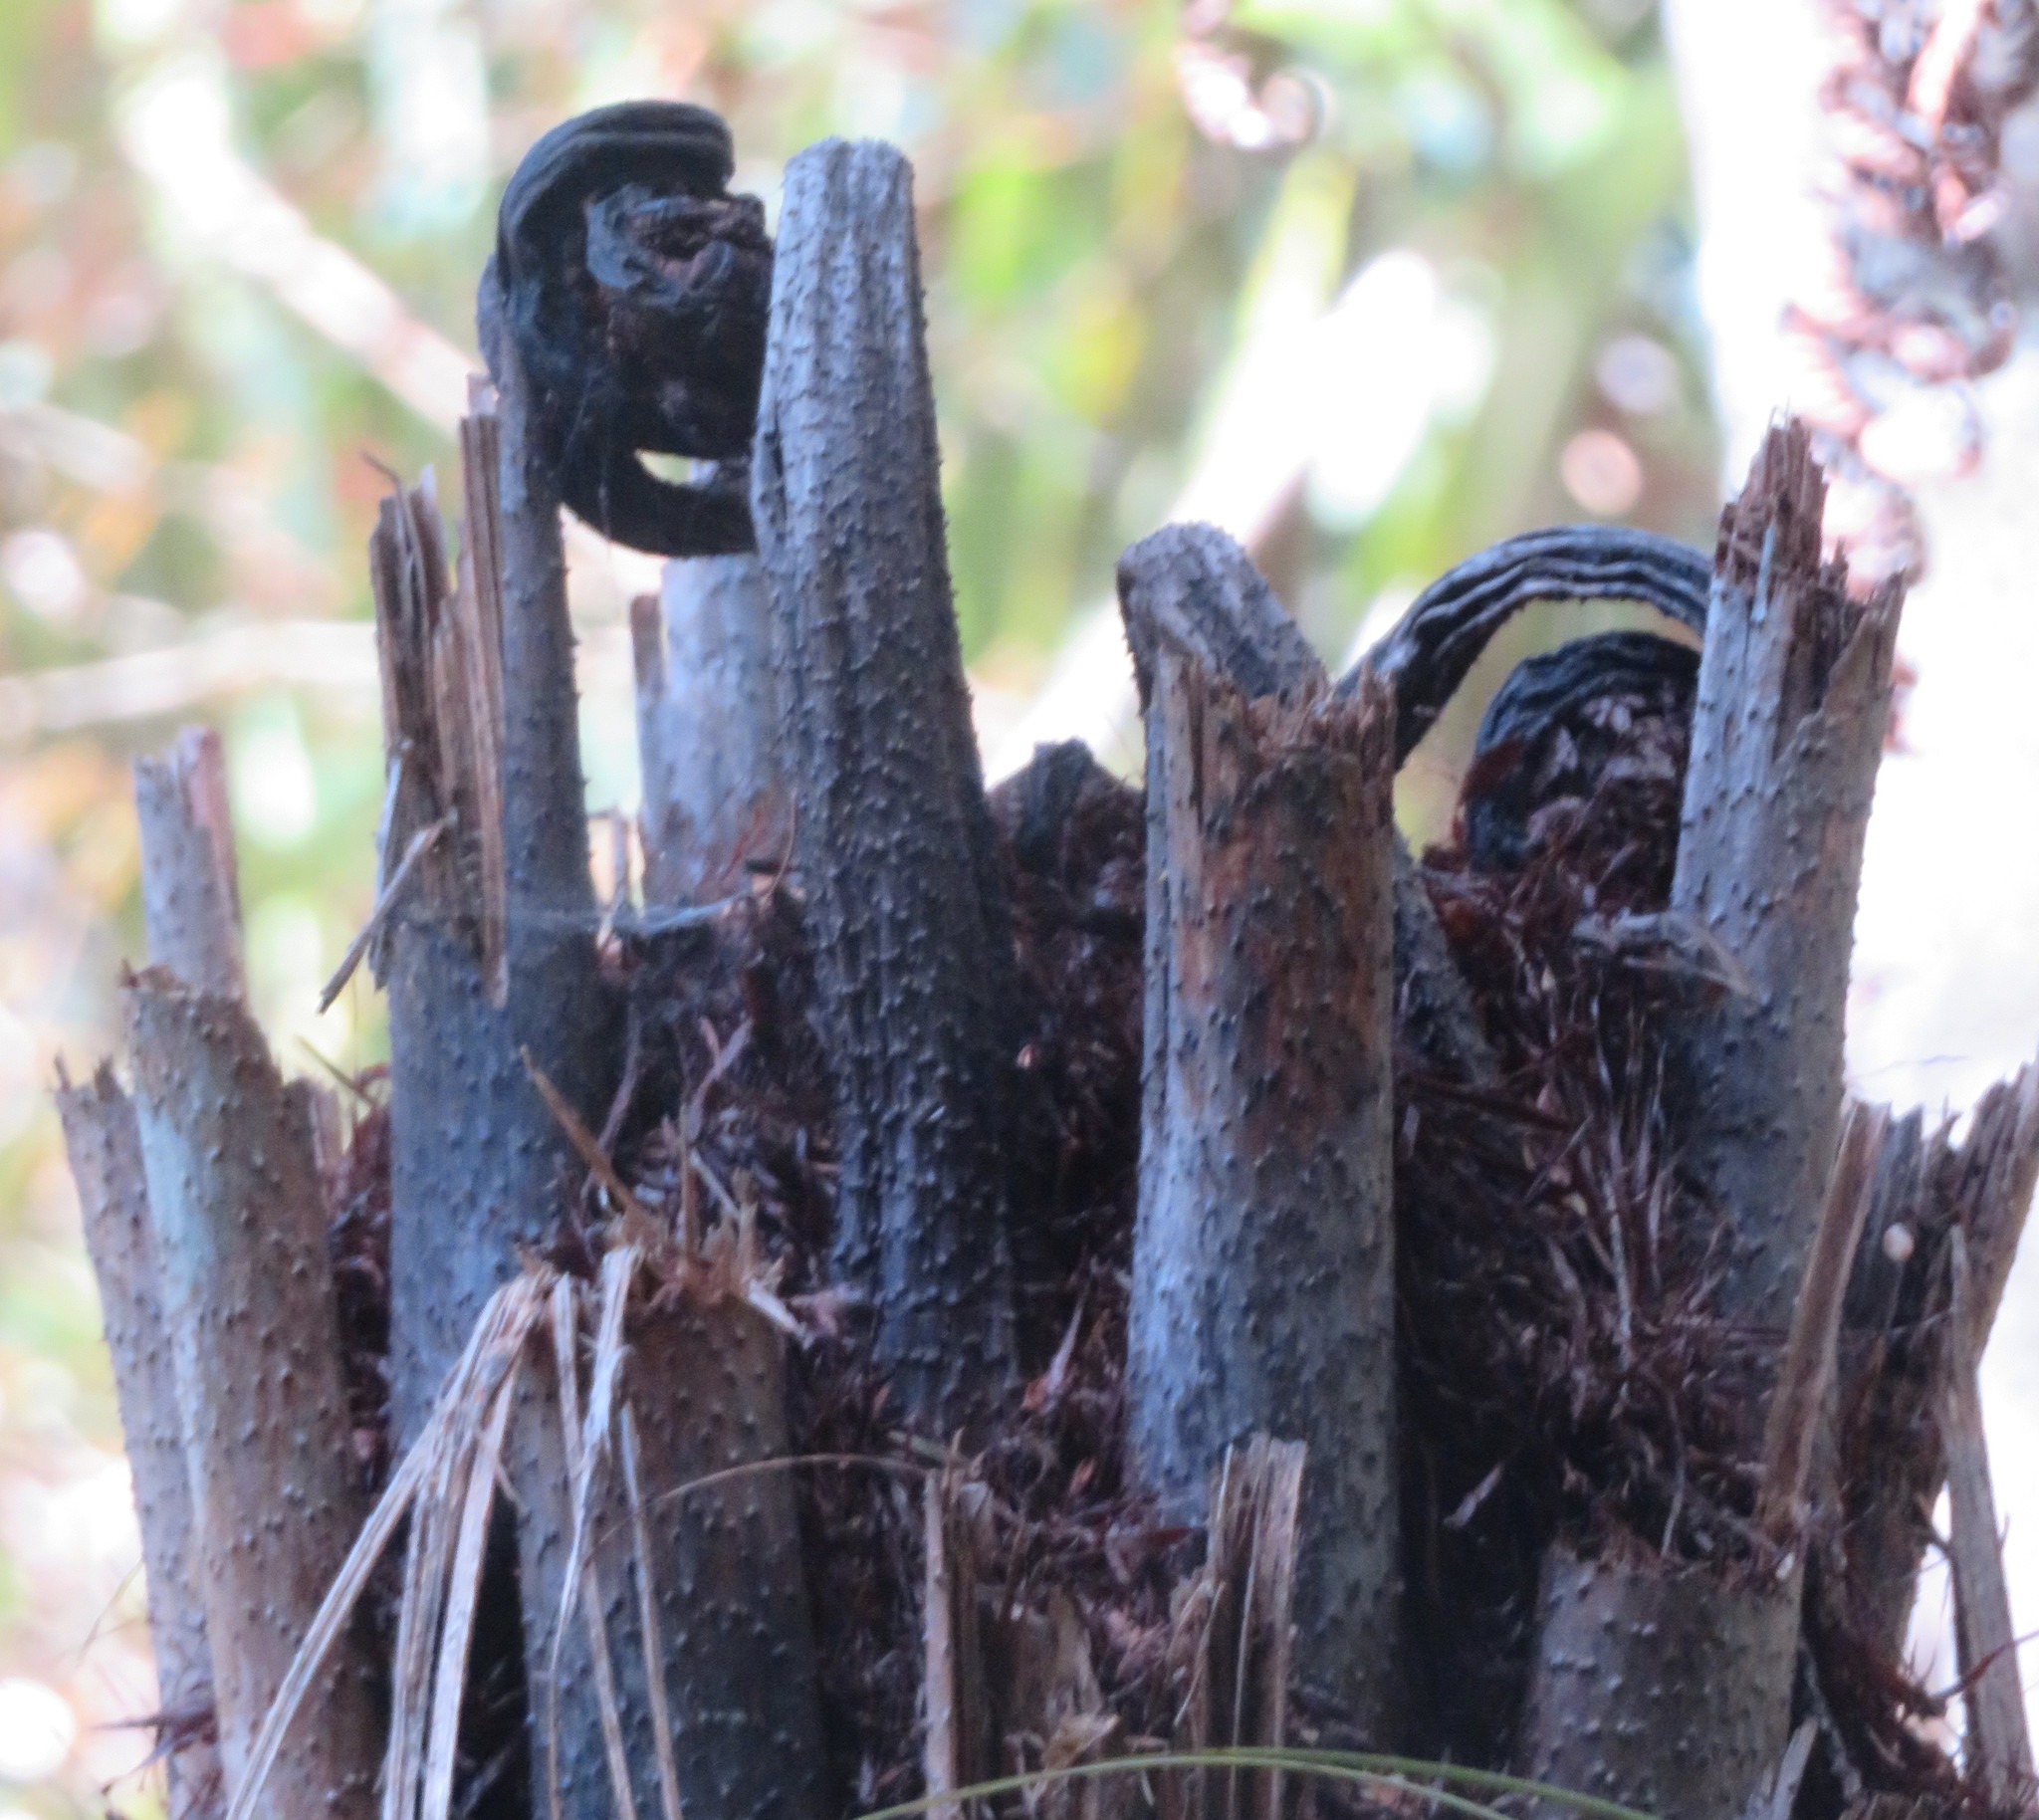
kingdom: Plantae
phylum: Tracheophyta
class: Polypodiopsida
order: Cyatheales
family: Cyatheaceae
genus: Alsophila
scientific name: Alsophila dealbata
